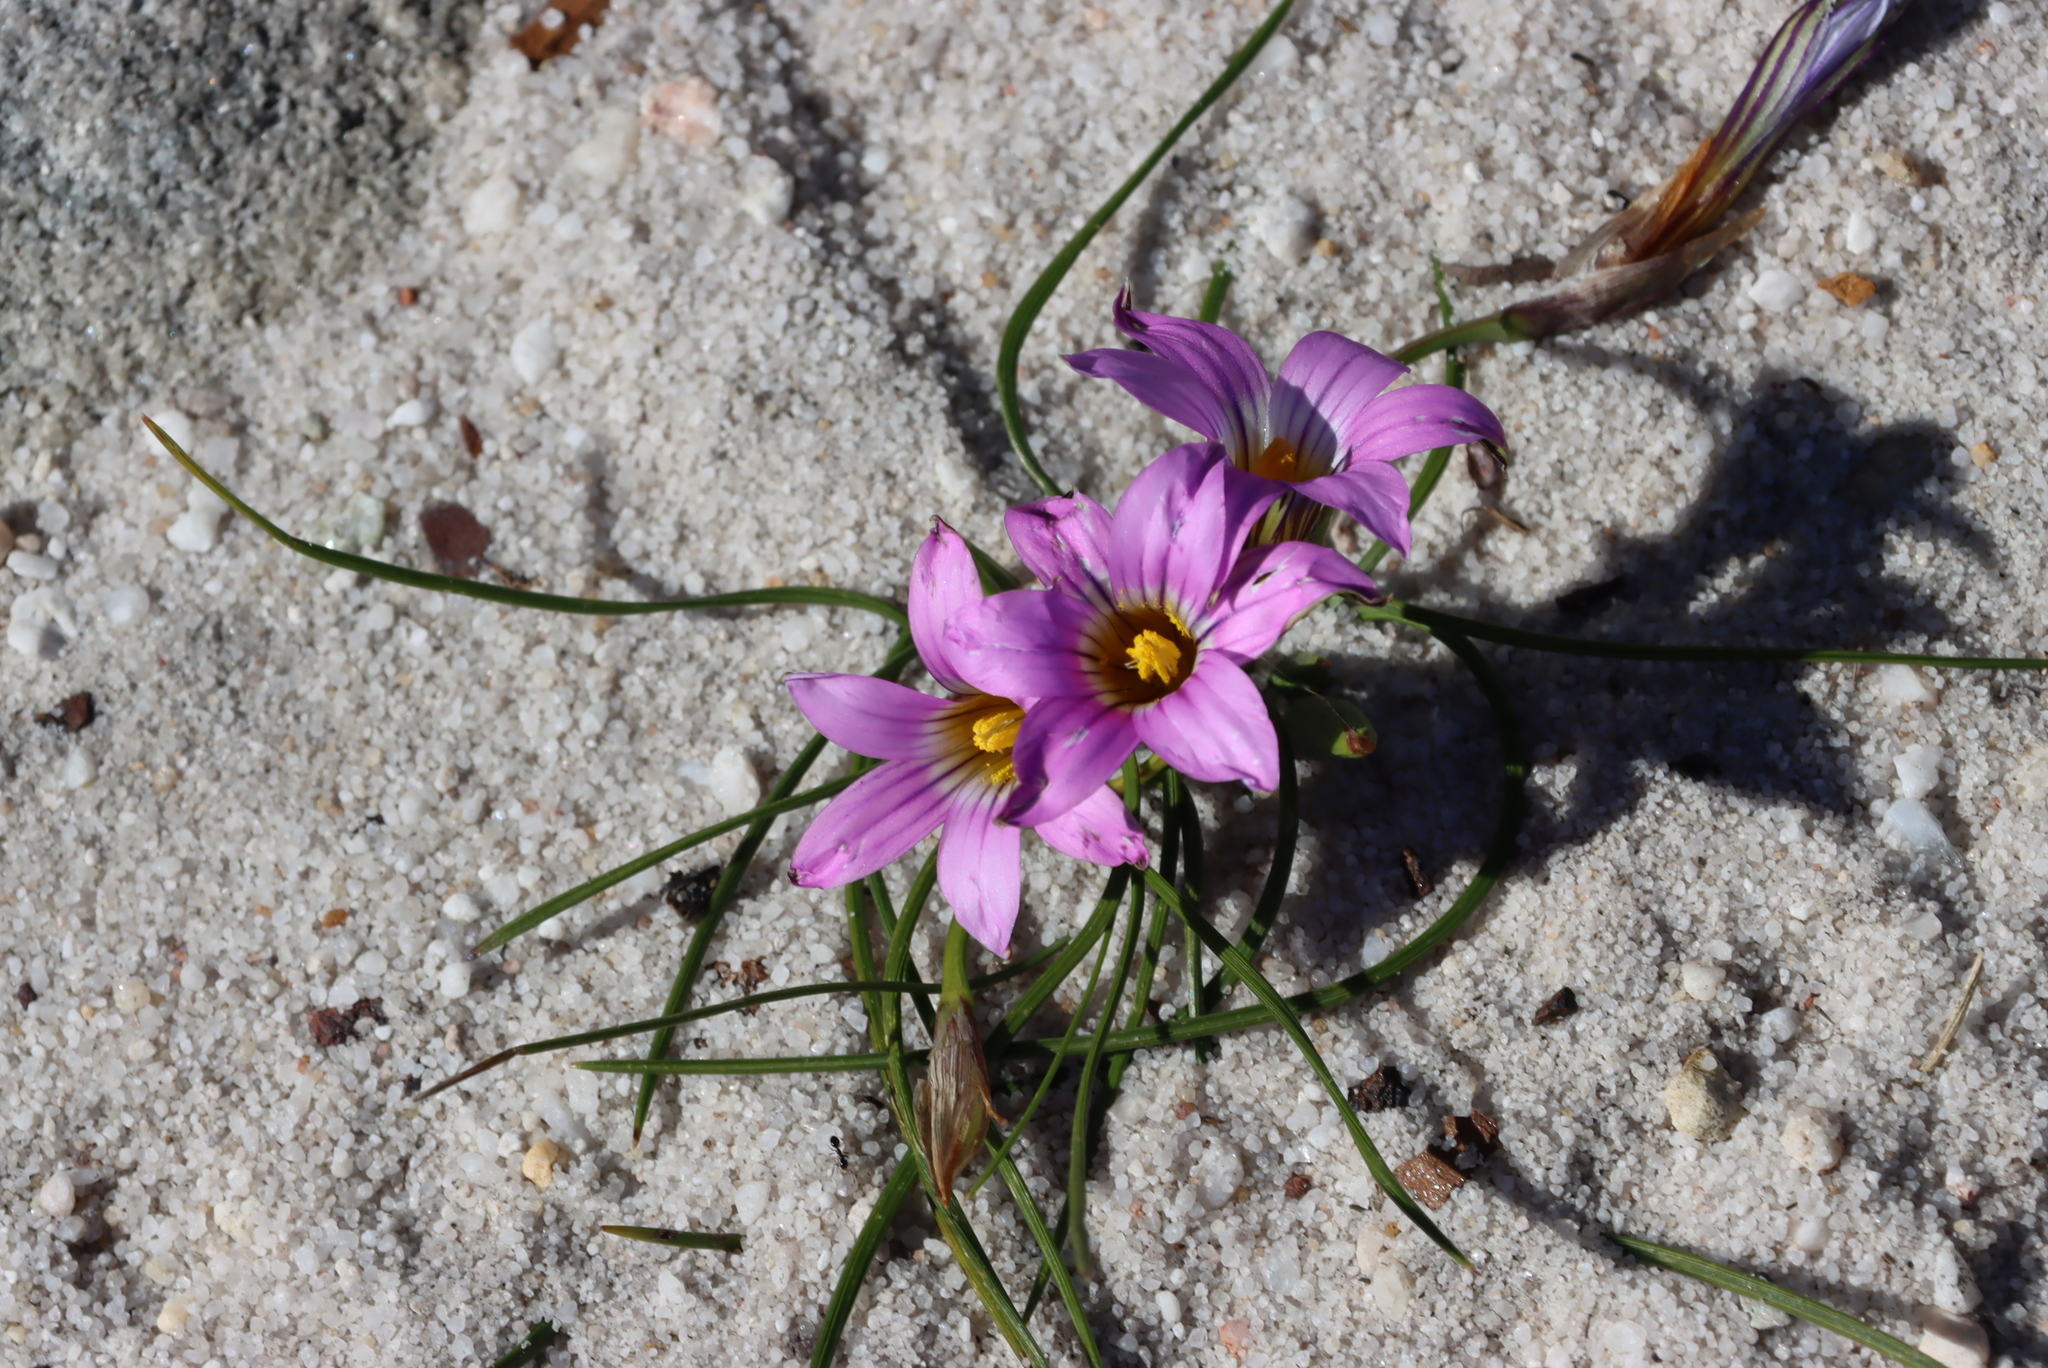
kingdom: Plantae
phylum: Tracheophyta
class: Liliopsida
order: Asparagales
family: Iridaceae
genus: Romulea
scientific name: Romulea rosea
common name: Oniongrass
